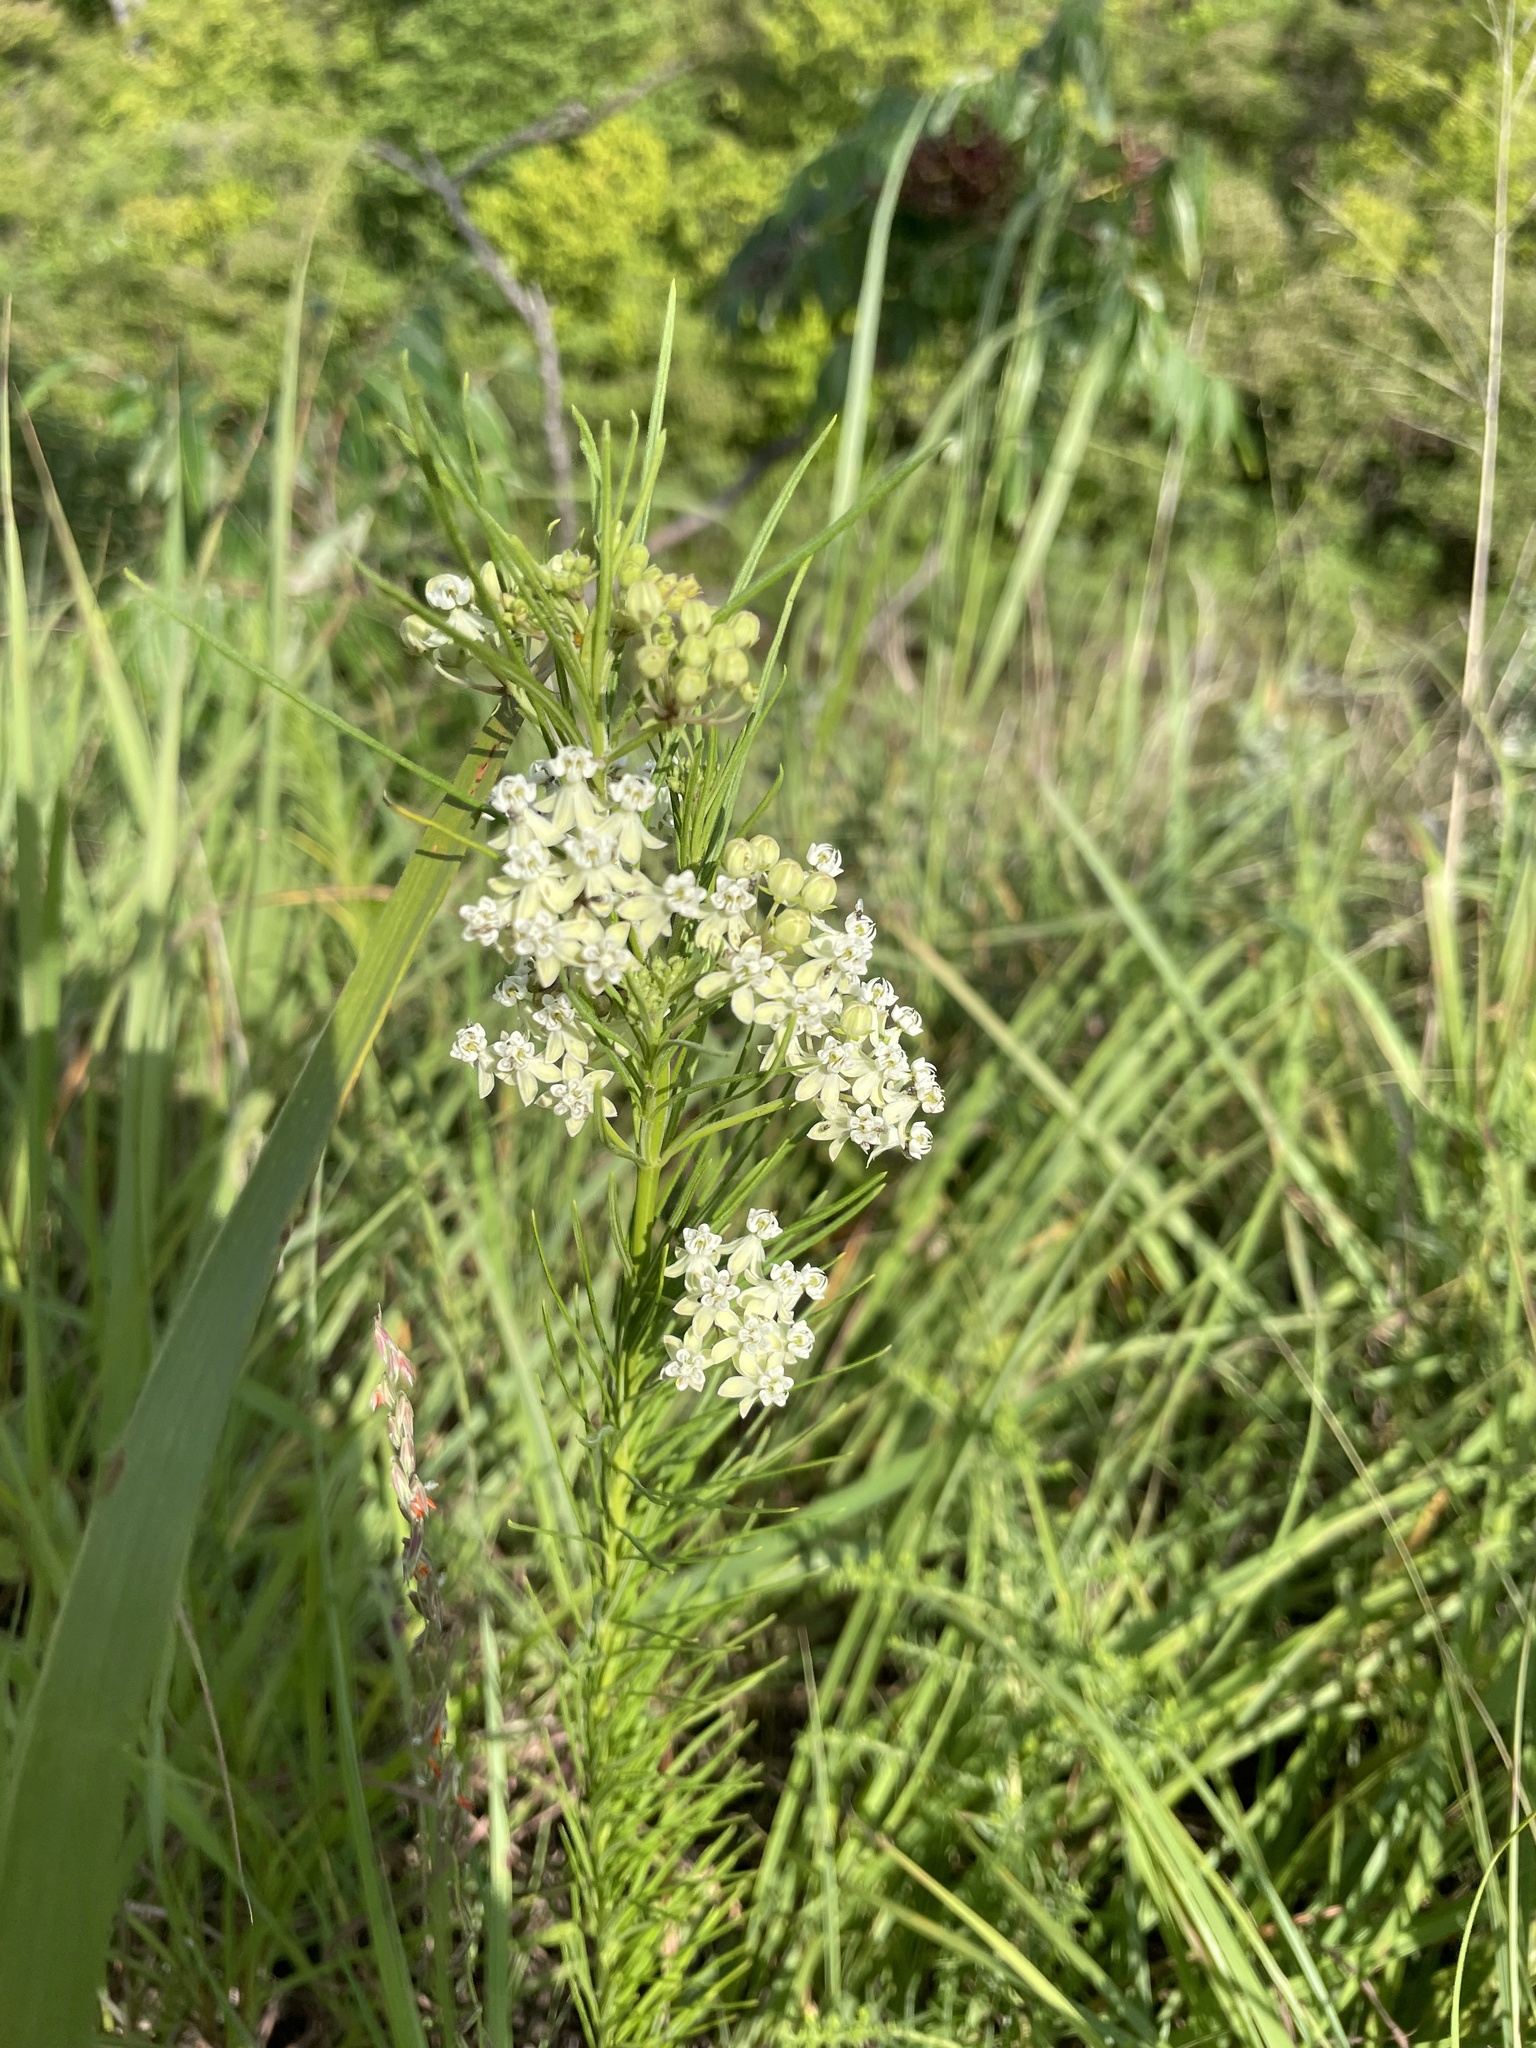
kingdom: Plantae
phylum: Tracheophyta
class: Magnoliopsida
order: Gentianales
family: Apocynaceae
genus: Asclepias
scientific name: Asclepias verticillata
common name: Eastern whorled milkweed
